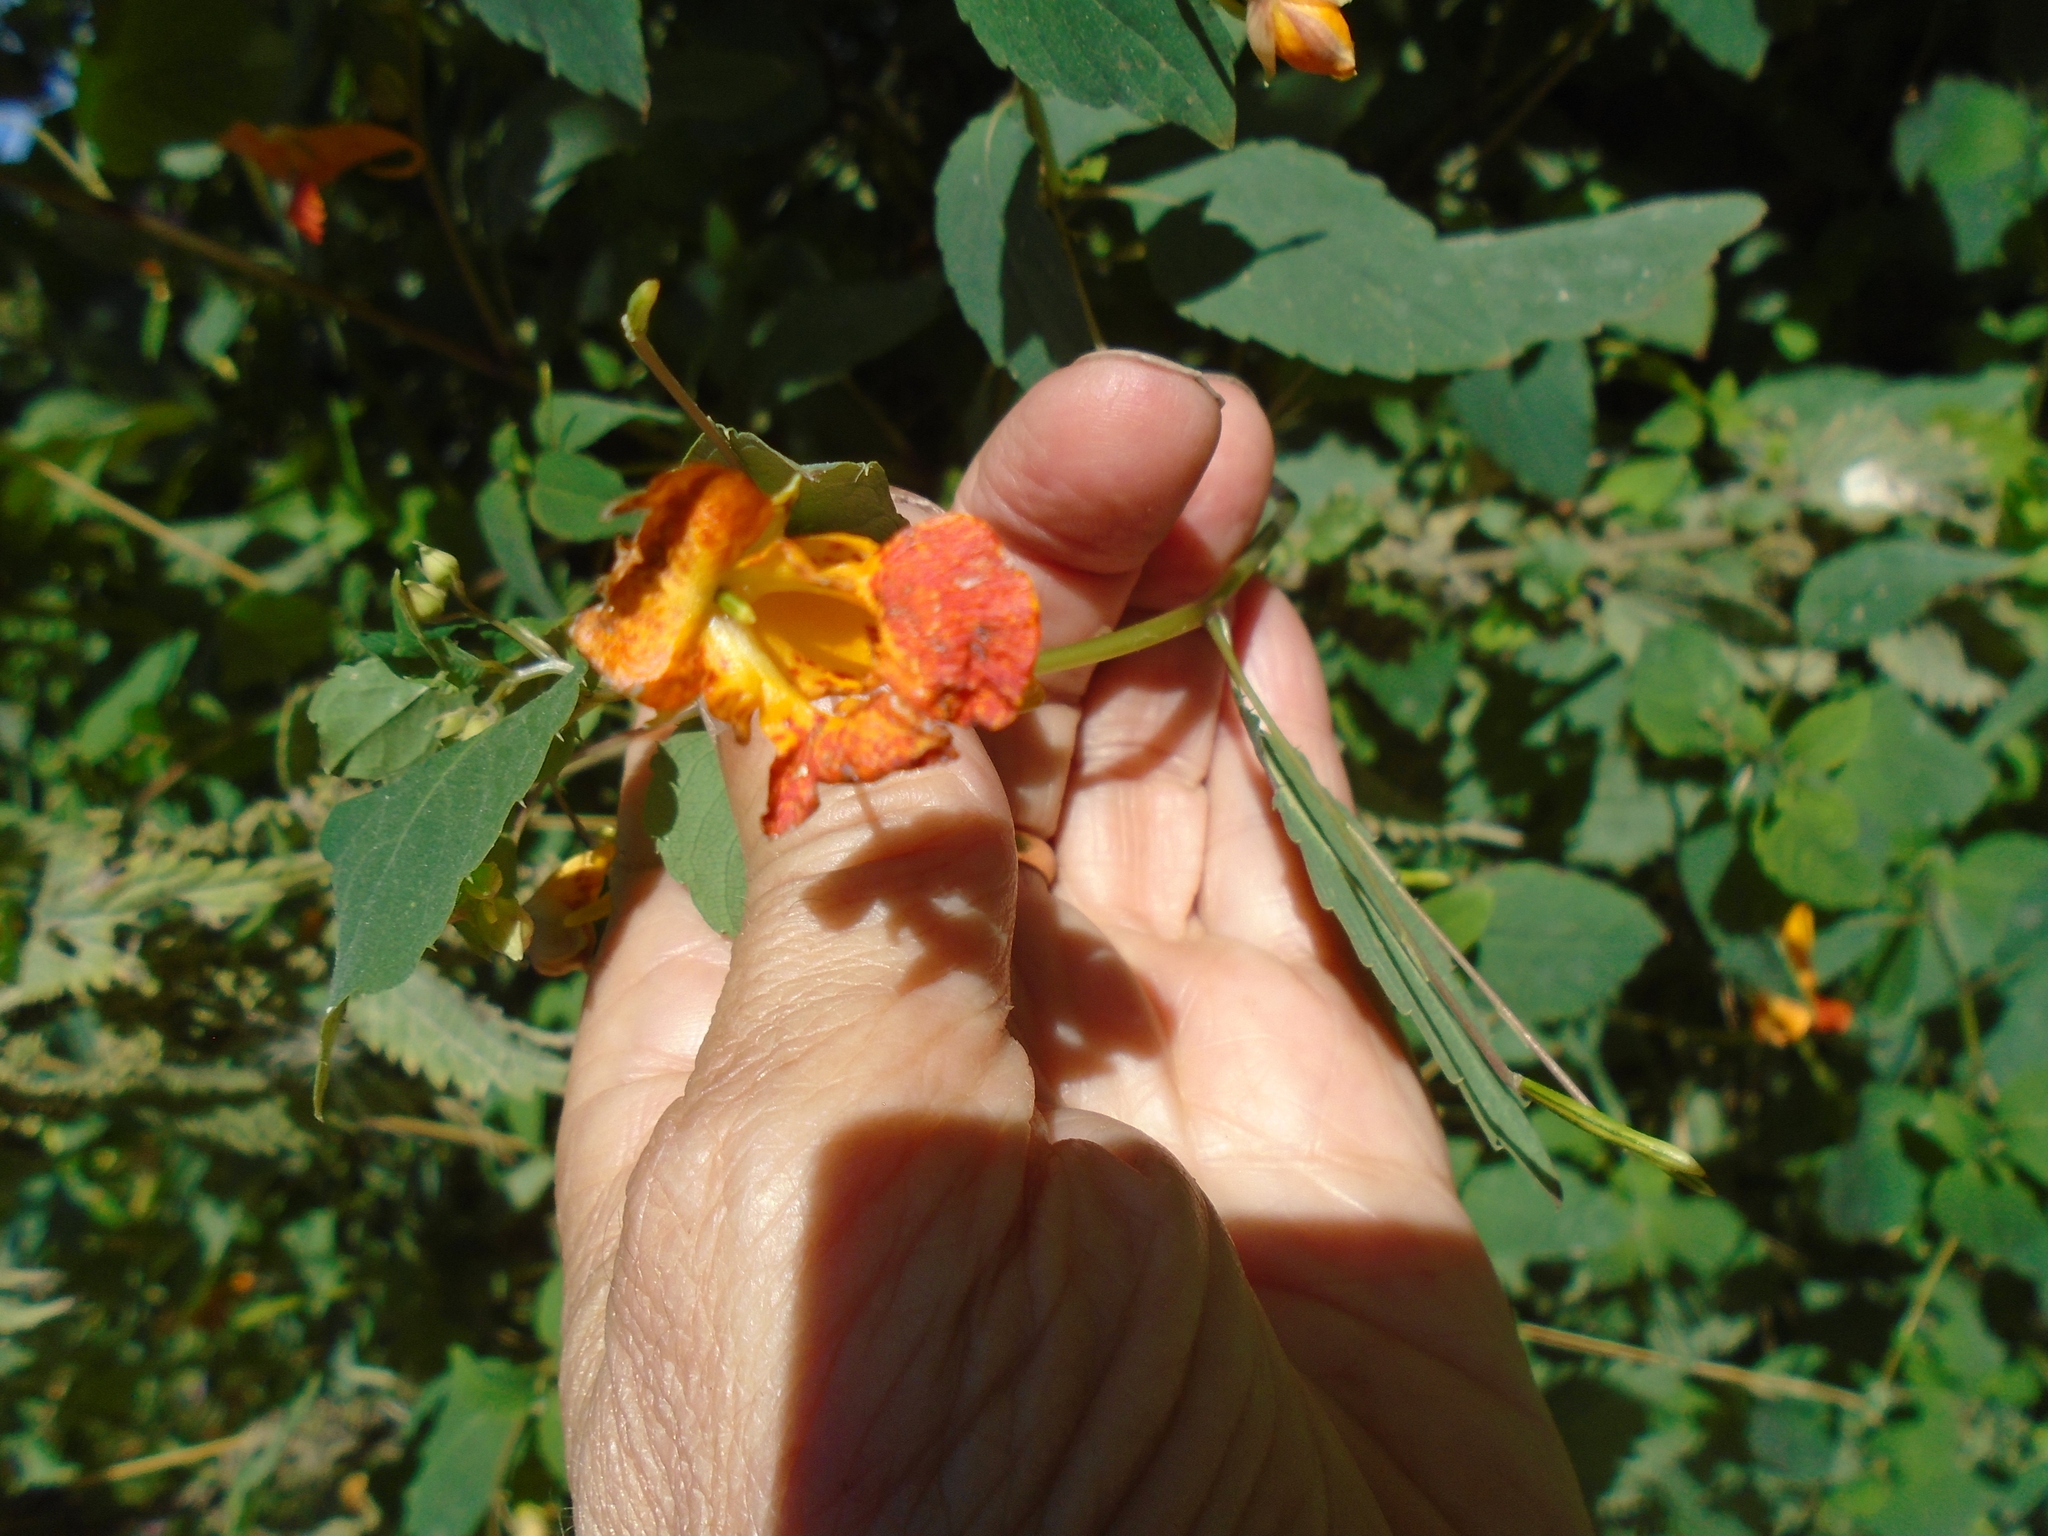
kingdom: Plantae
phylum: Tracheophyta
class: Magnoliopsida
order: Ericales
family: Balsaminaceae
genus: Impatiens
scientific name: Impatiens capensis
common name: Orange balsam
